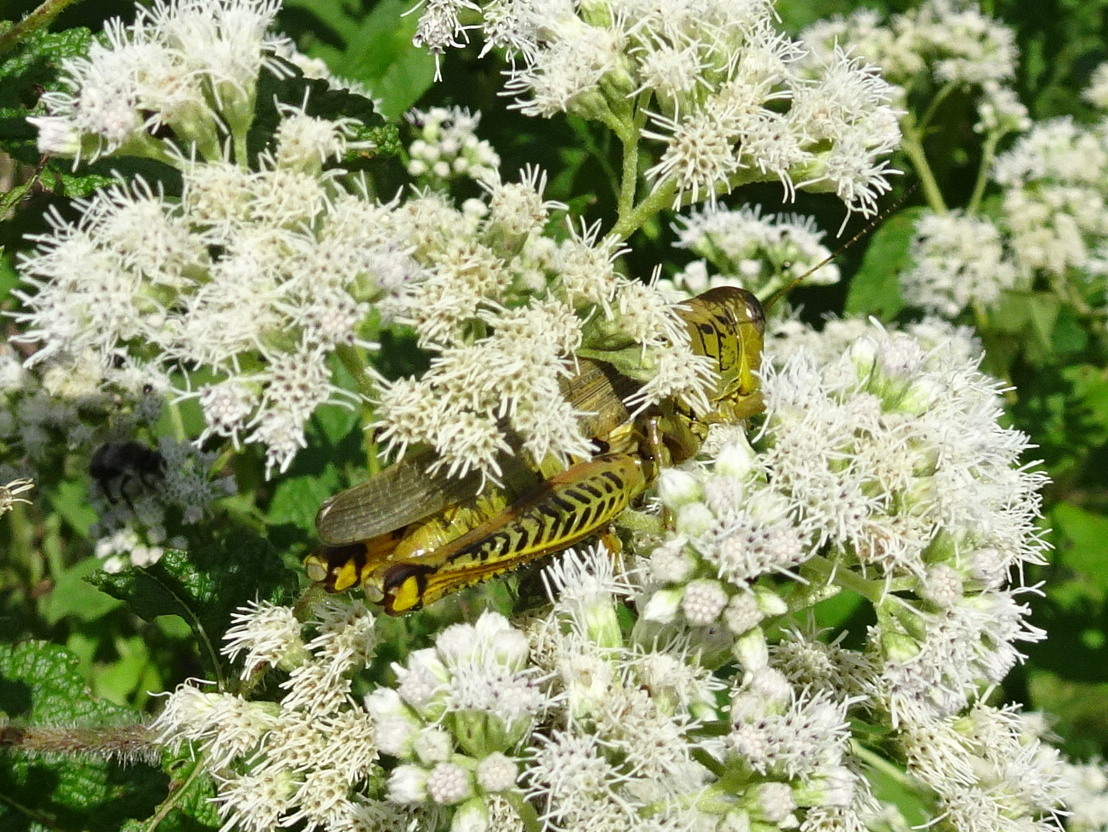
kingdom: Animalia
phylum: Arthropoda
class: Insecta
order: Orthoptera
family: Acrididae
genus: Melanoplus
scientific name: Melanoplus differentialis
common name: Differential grasshopper
